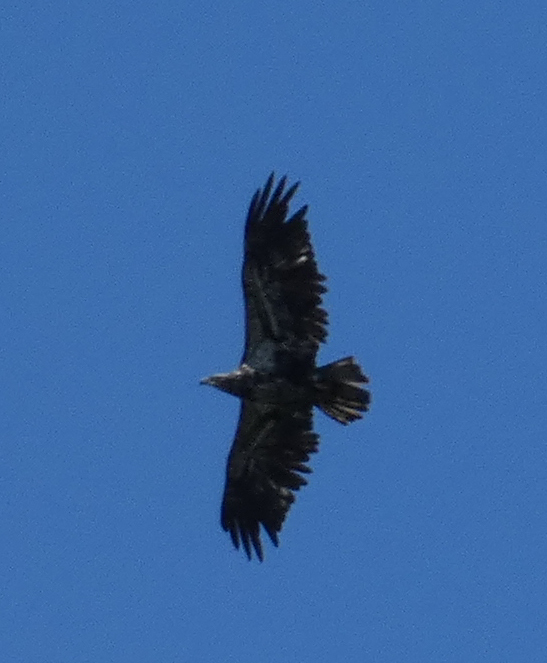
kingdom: Animalia
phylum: Chordata
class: Aves
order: Accipitriformes
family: Accipitridae
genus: Haliaeetus
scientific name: Haliaeetus leucocephalus
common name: Bald eagle
